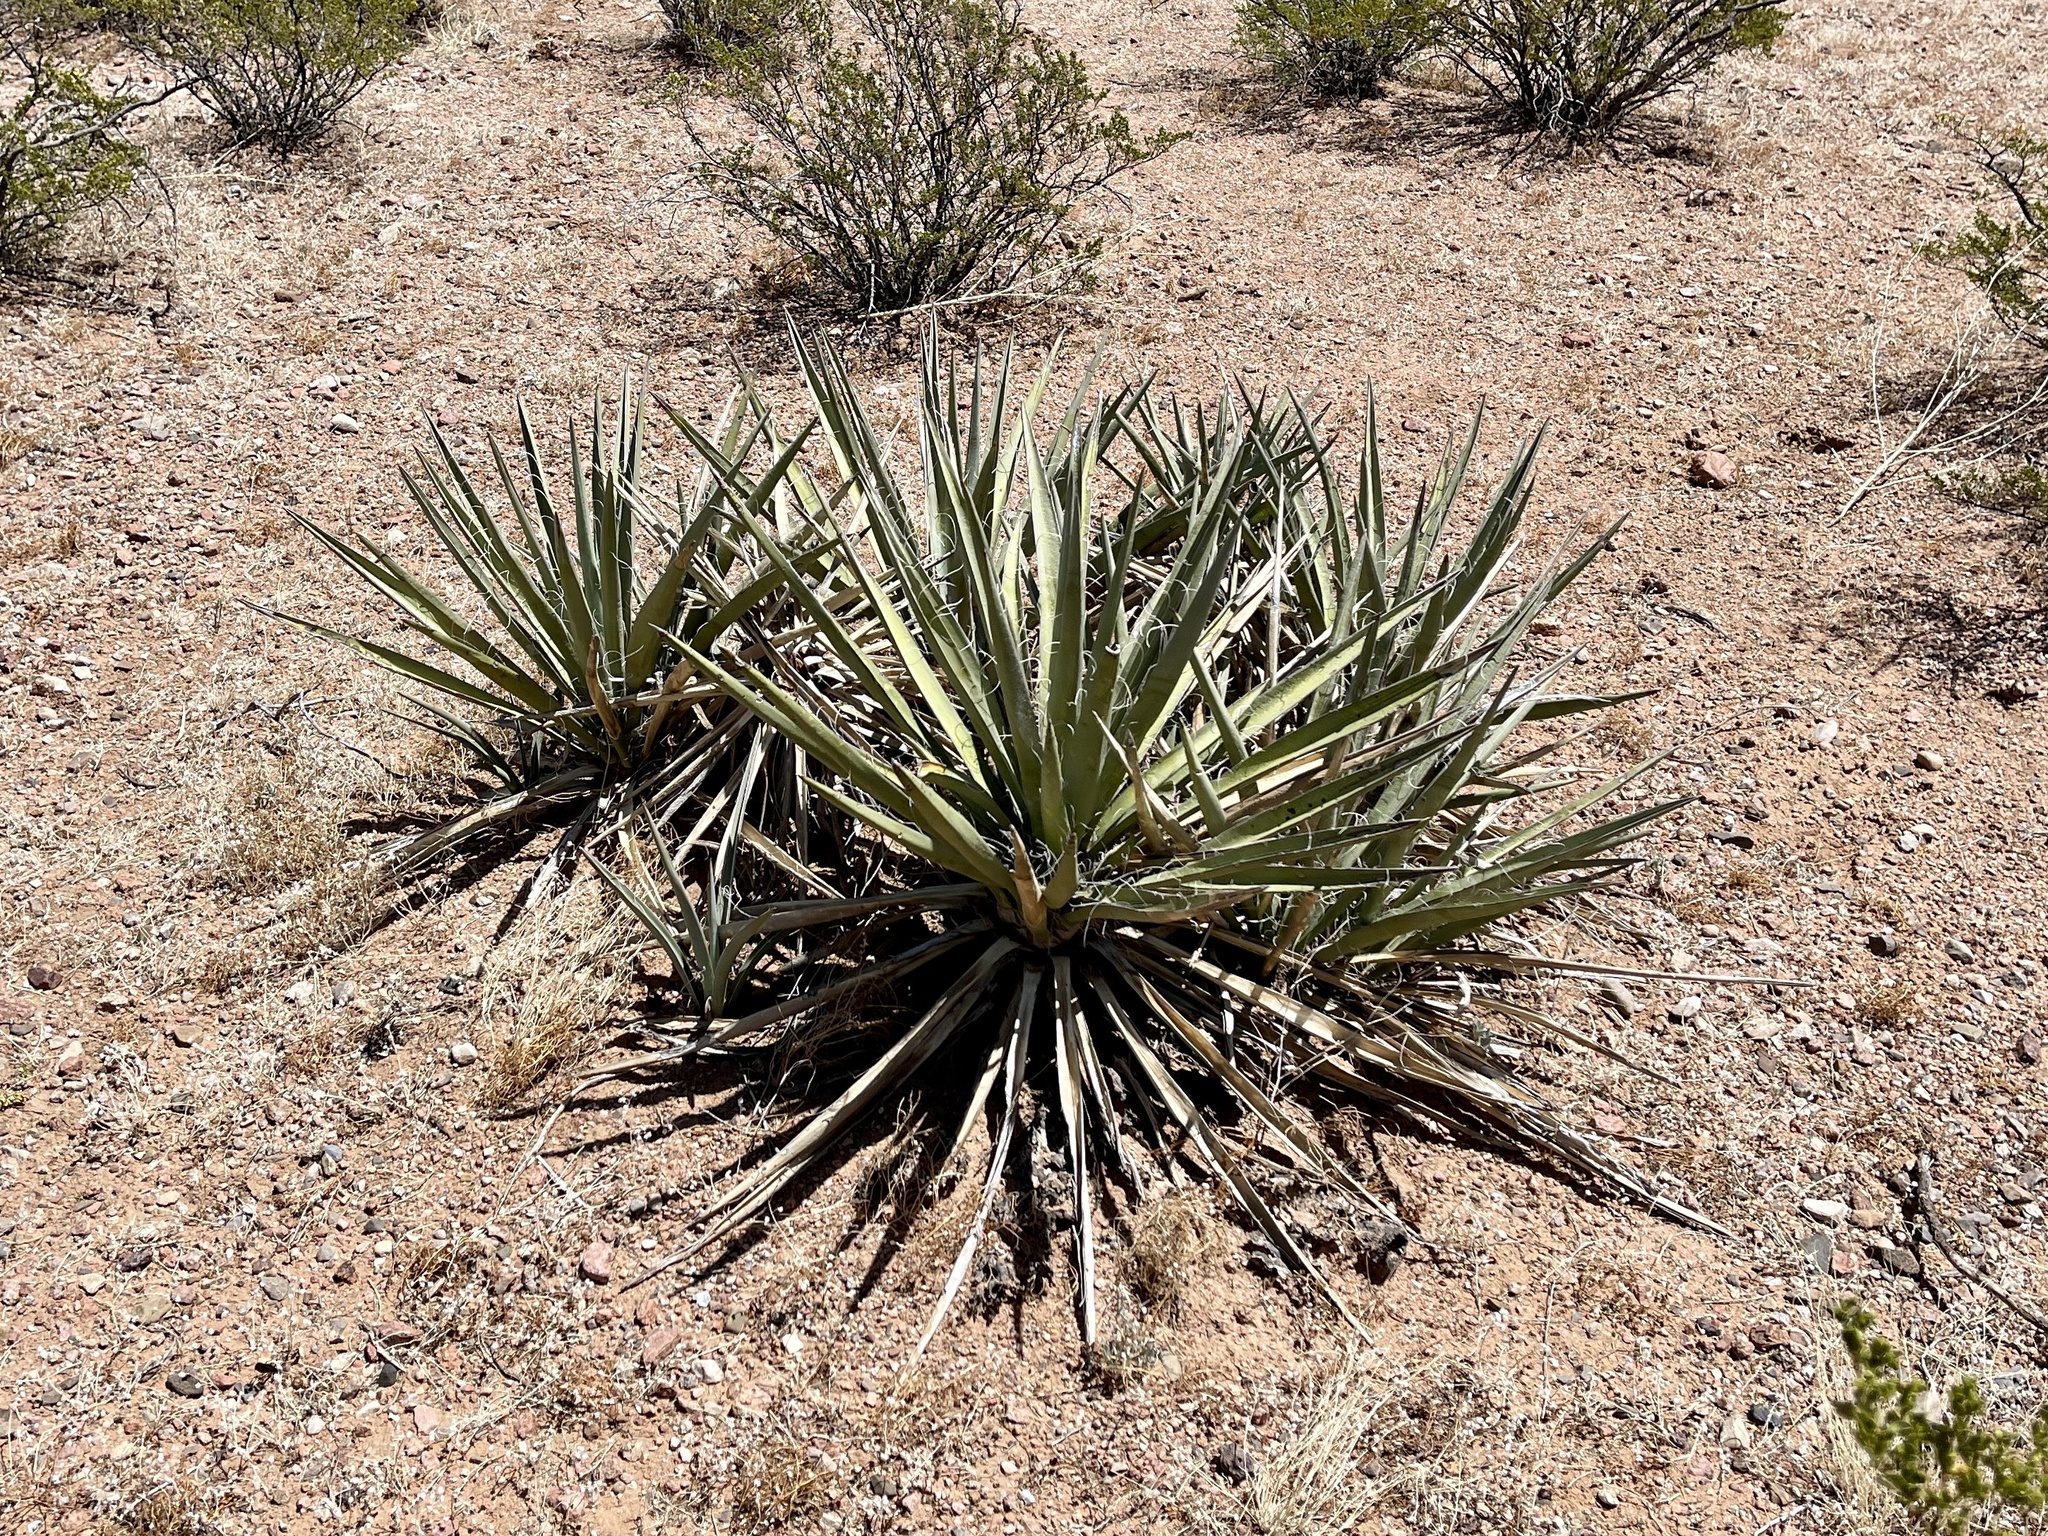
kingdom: Plantae
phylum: Tracheophyta
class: Liliopsida
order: Asparagales
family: Asparagaceae
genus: Yucca
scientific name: Yucca baccata
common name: Banana yucca
